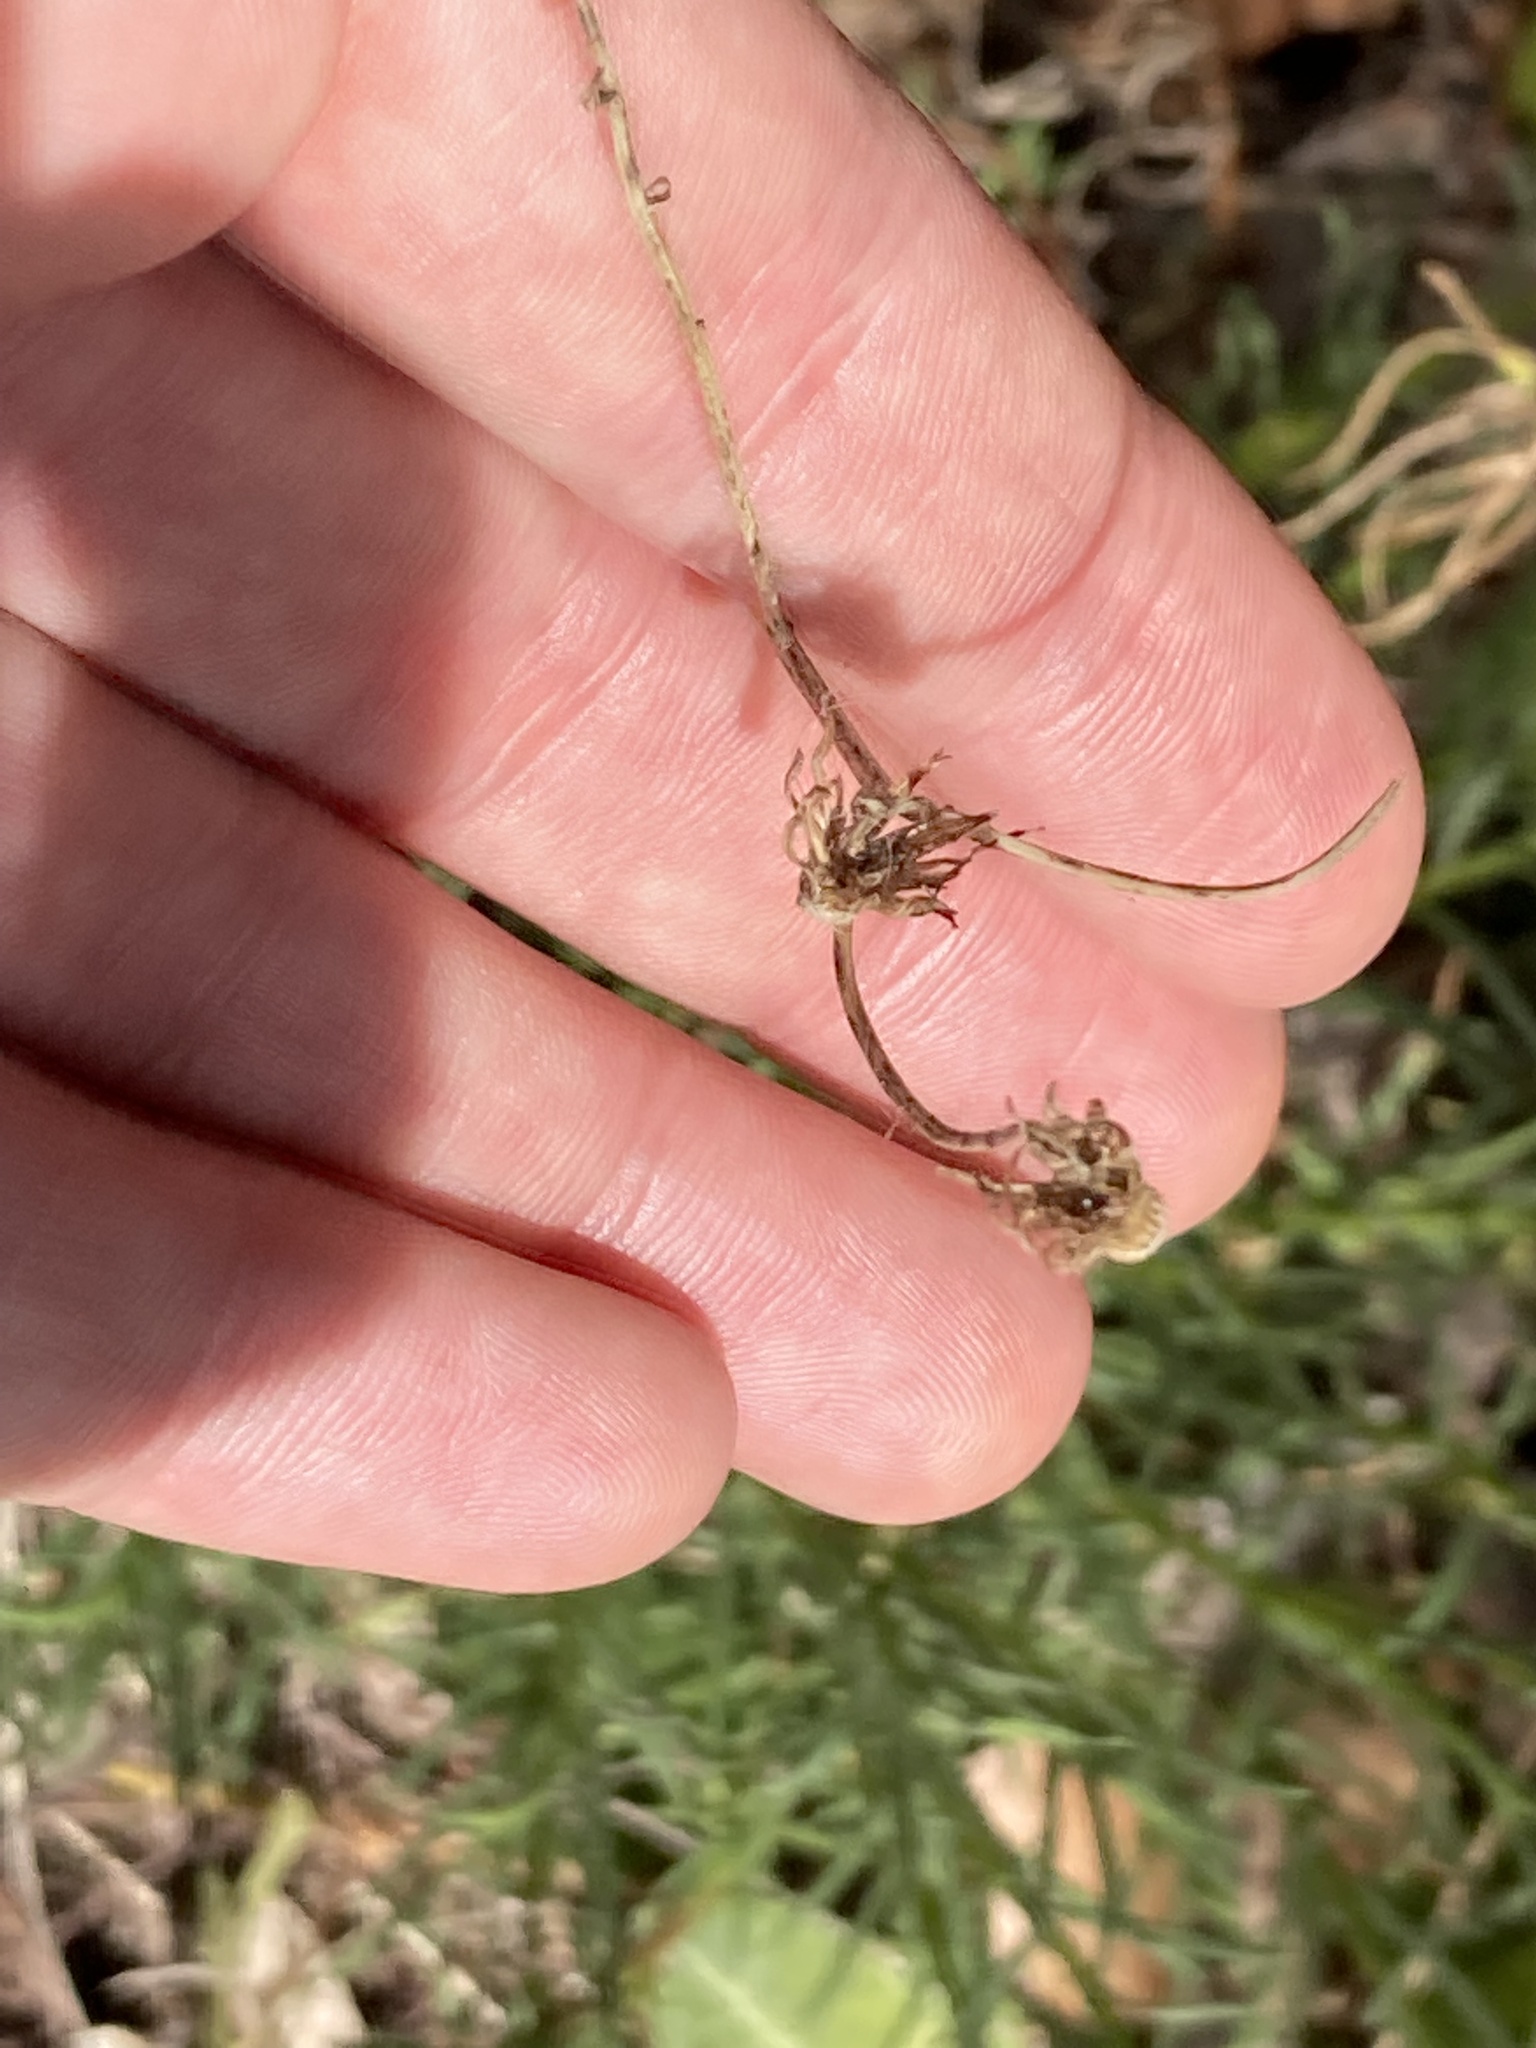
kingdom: Plantae
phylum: Tracheophyta
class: Magnoliopsida
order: Asterales
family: Asteraceae
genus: Senecio
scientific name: Senecio inaequidens
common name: Narrow-leaved ragwort
